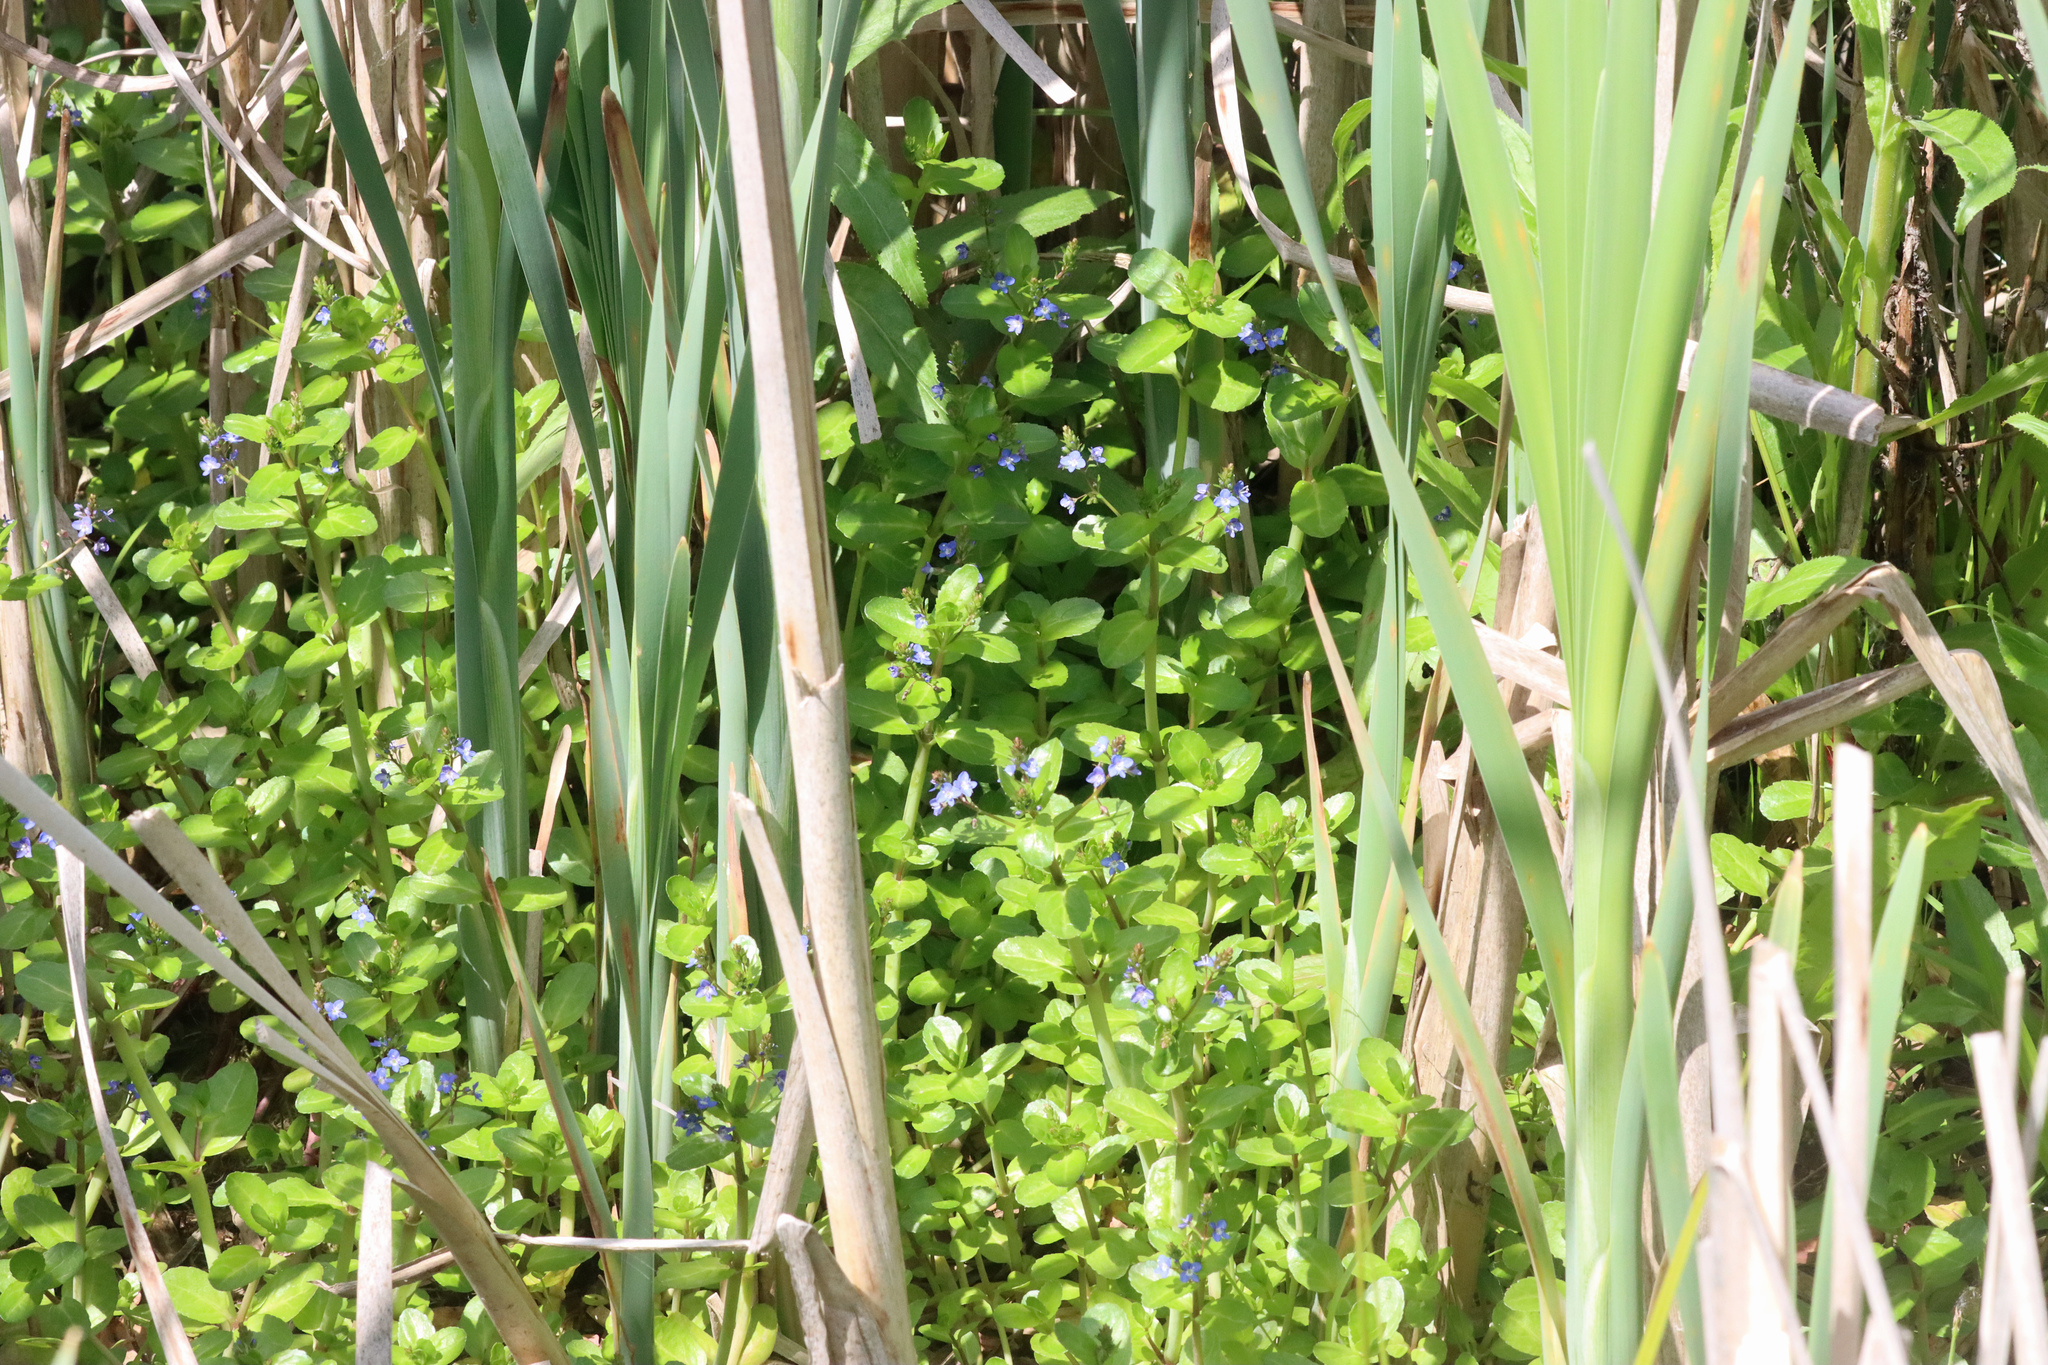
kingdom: Plantae
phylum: Tracheophyta
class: Magnoliopsida
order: Lamiales
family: Plantaginaceae
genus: Veronica
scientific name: Veronica beccabunga
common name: Brooklime
